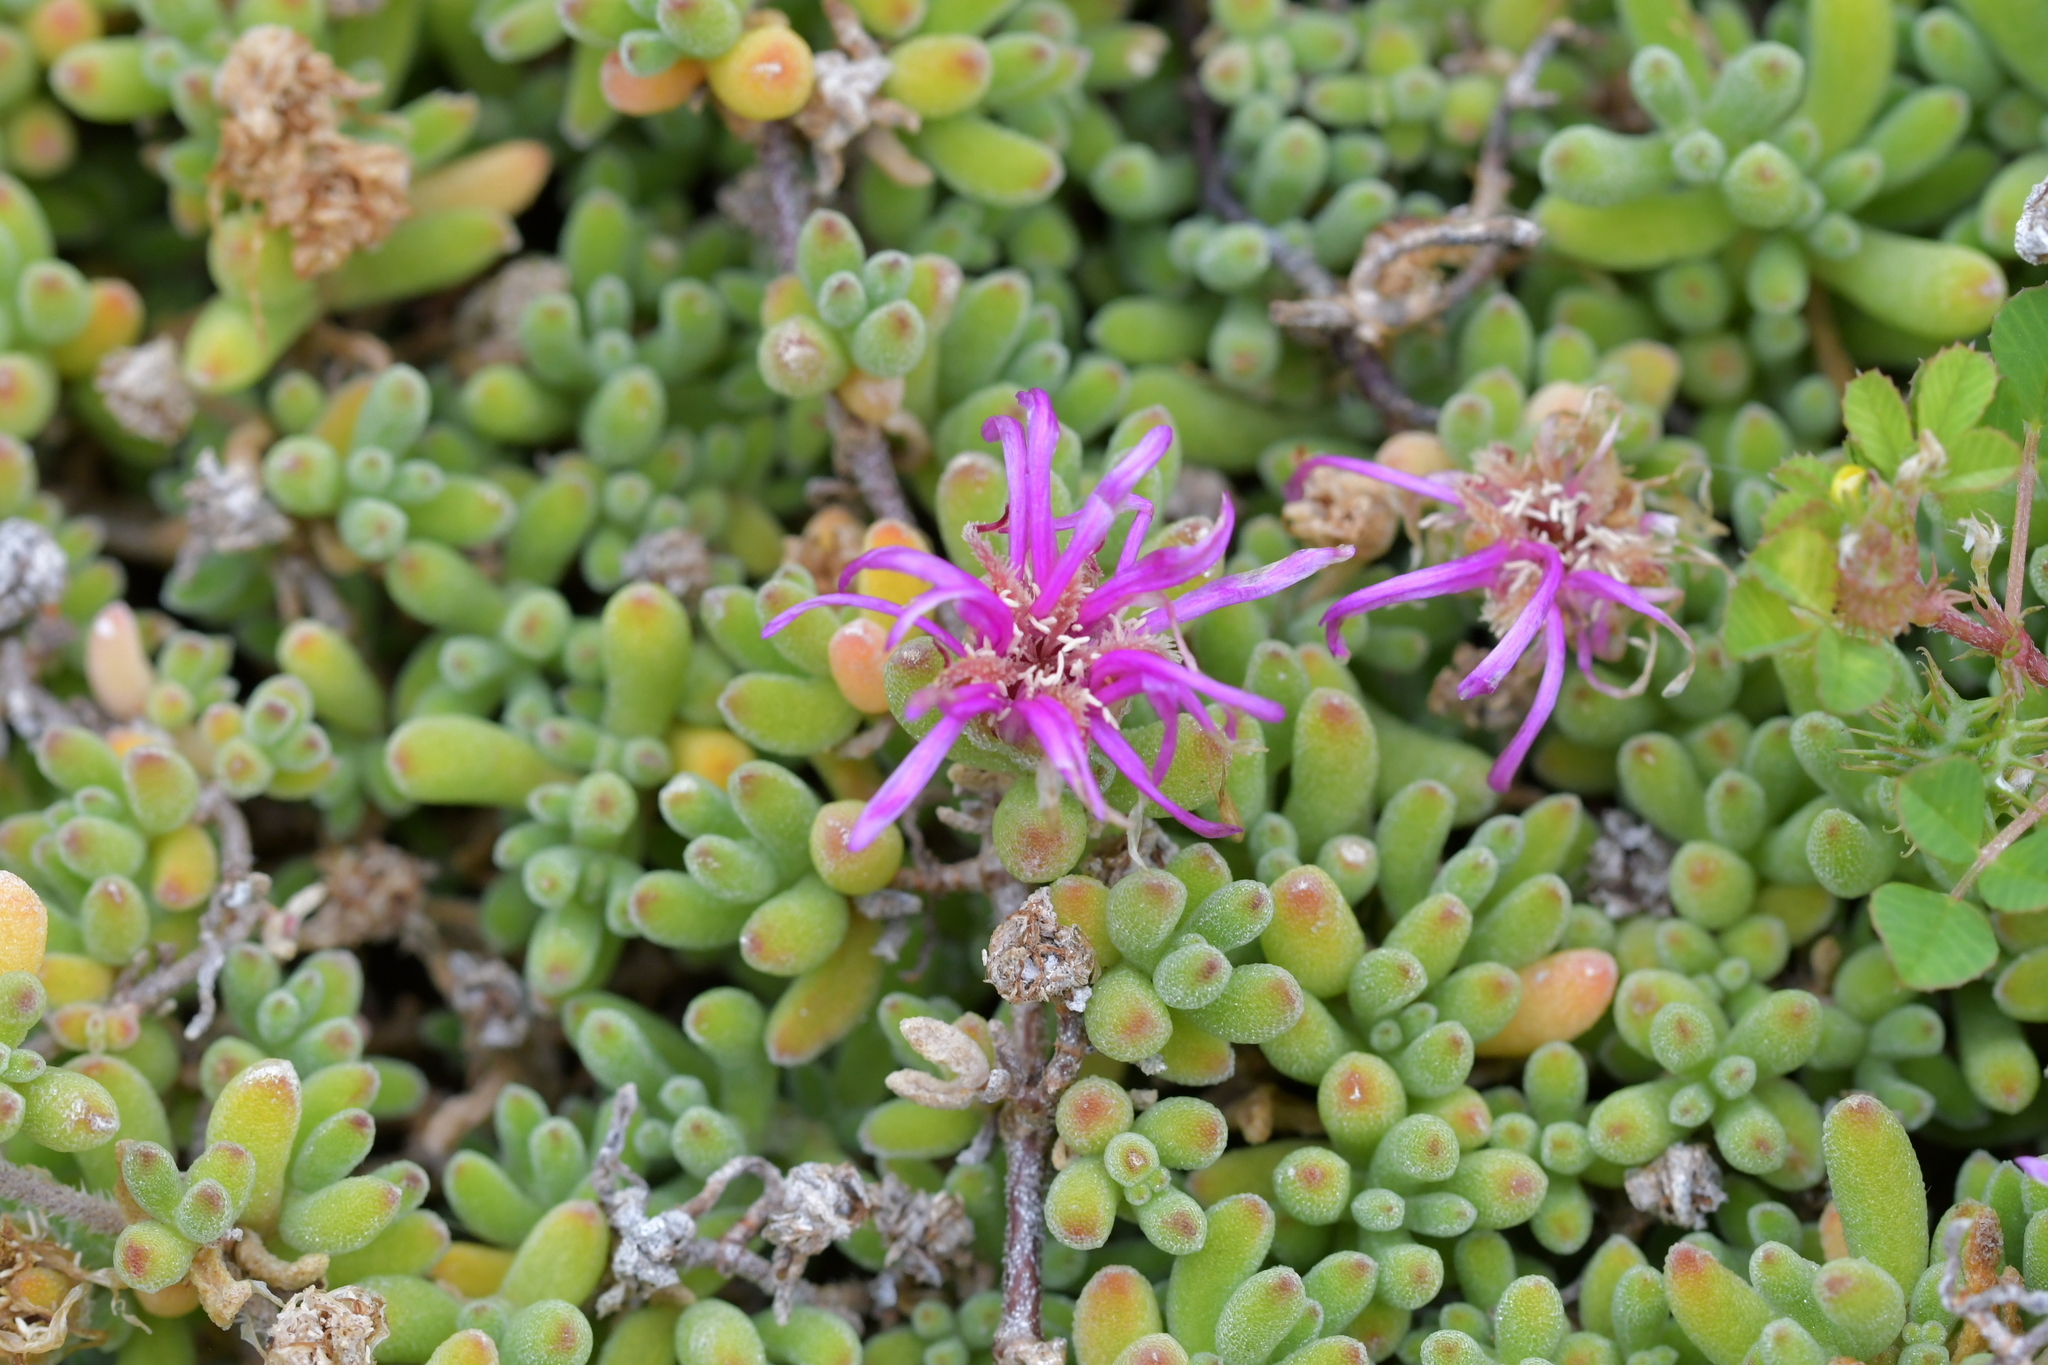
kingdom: Plantae
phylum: Tracheophyta
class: Magnoliopsida
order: Caryophyllales
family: Aizoaceae
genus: Drosanthemum
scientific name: Drosanthemum floribundum
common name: Pale dewplant
